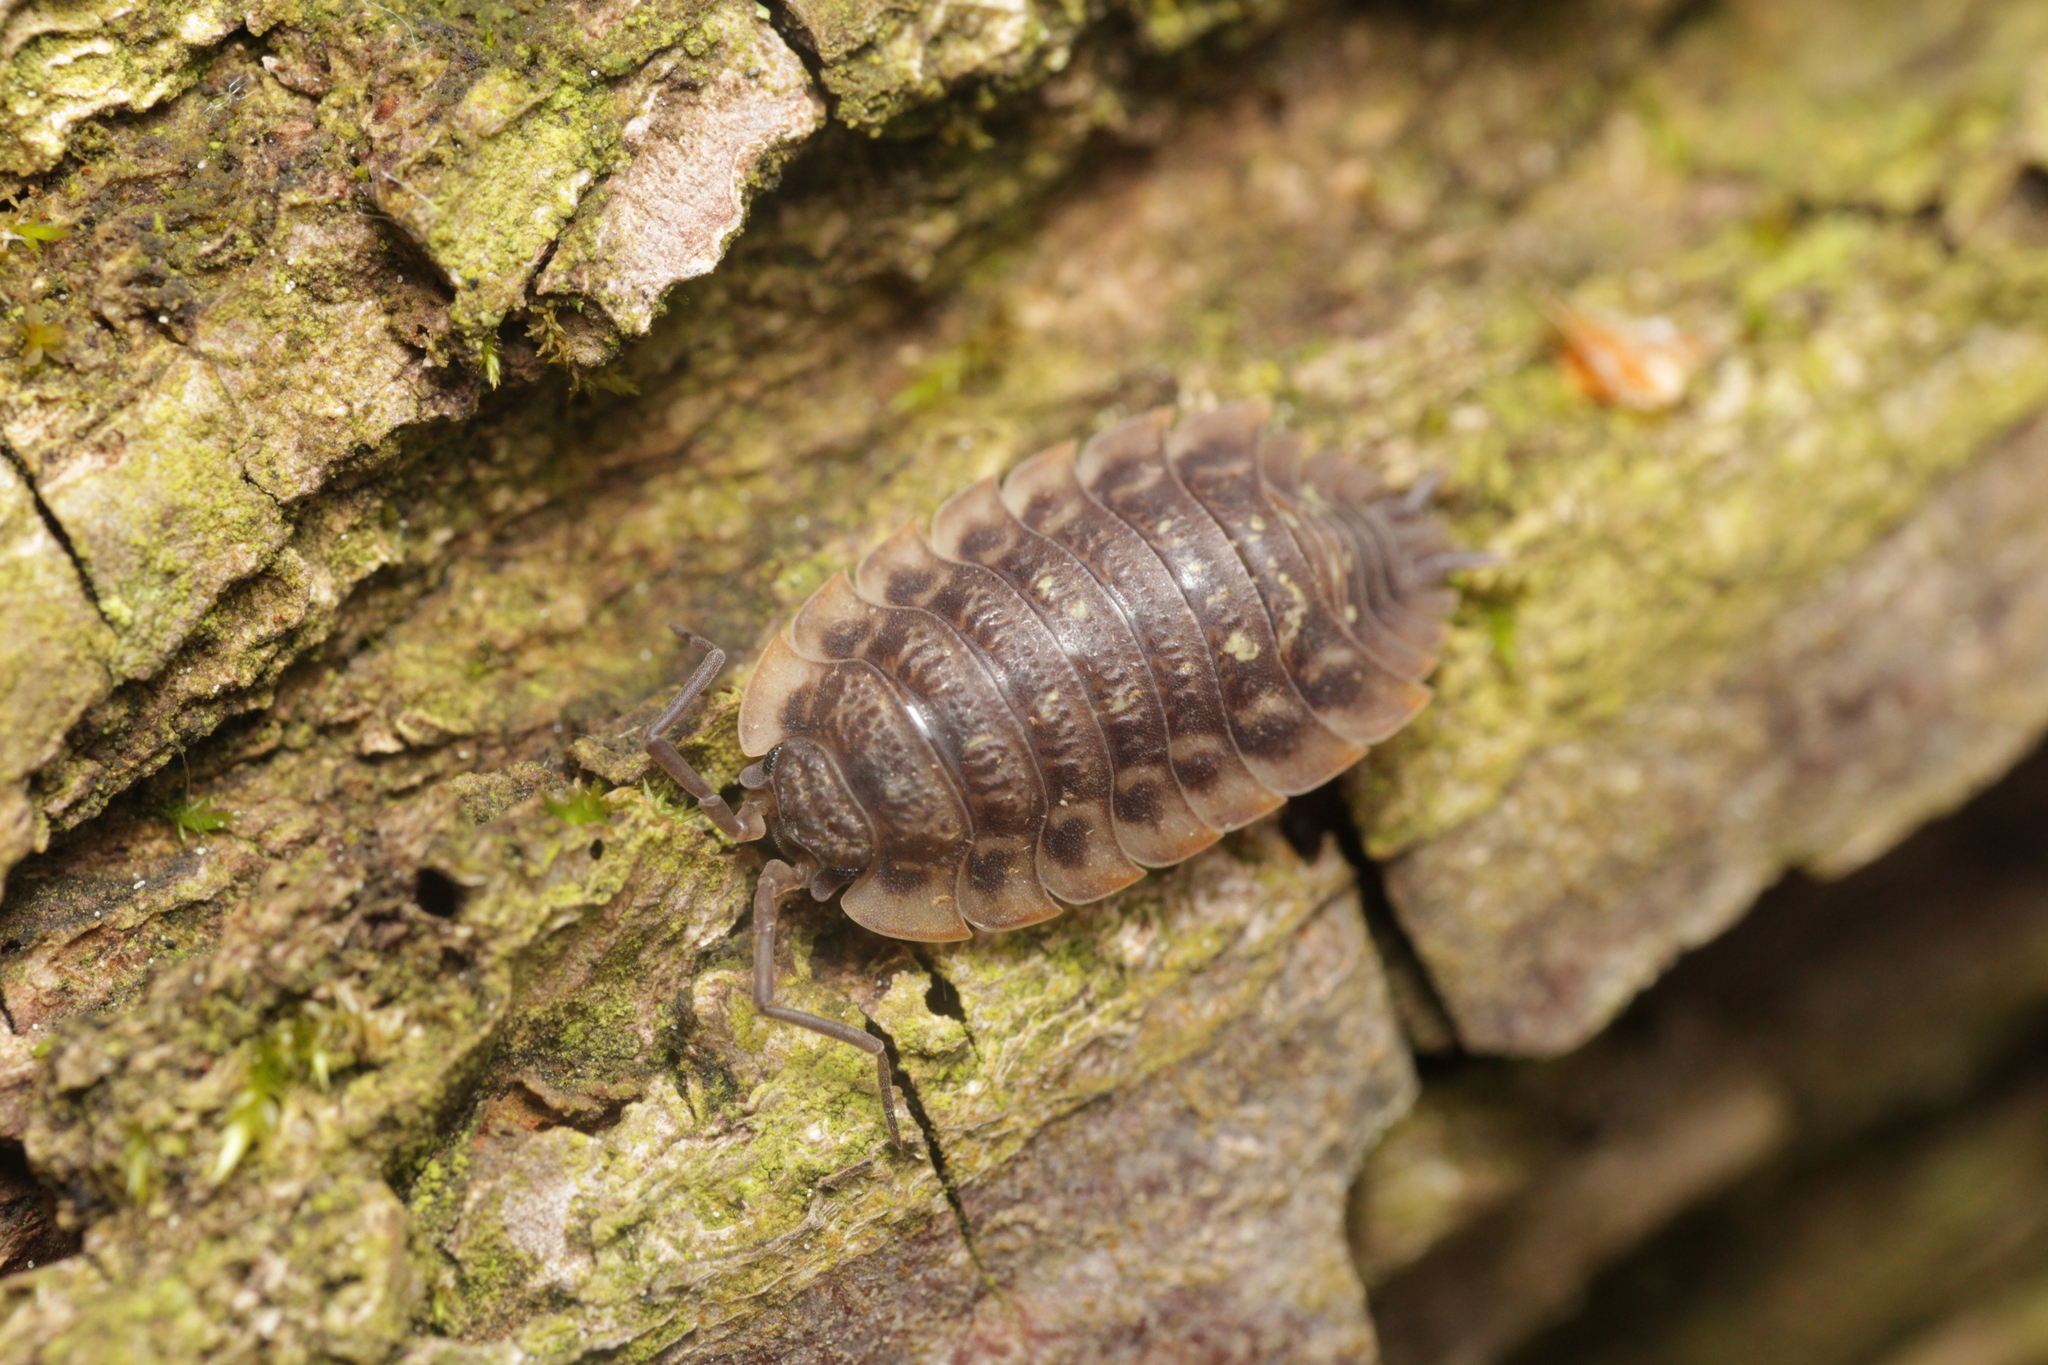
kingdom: Animalia
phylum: Arthropoda
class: Malacostraca
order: Isopoda
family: Oniscidae
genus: Oniscus
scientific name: Oniscus asellus
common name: Common shiny woodlouse
